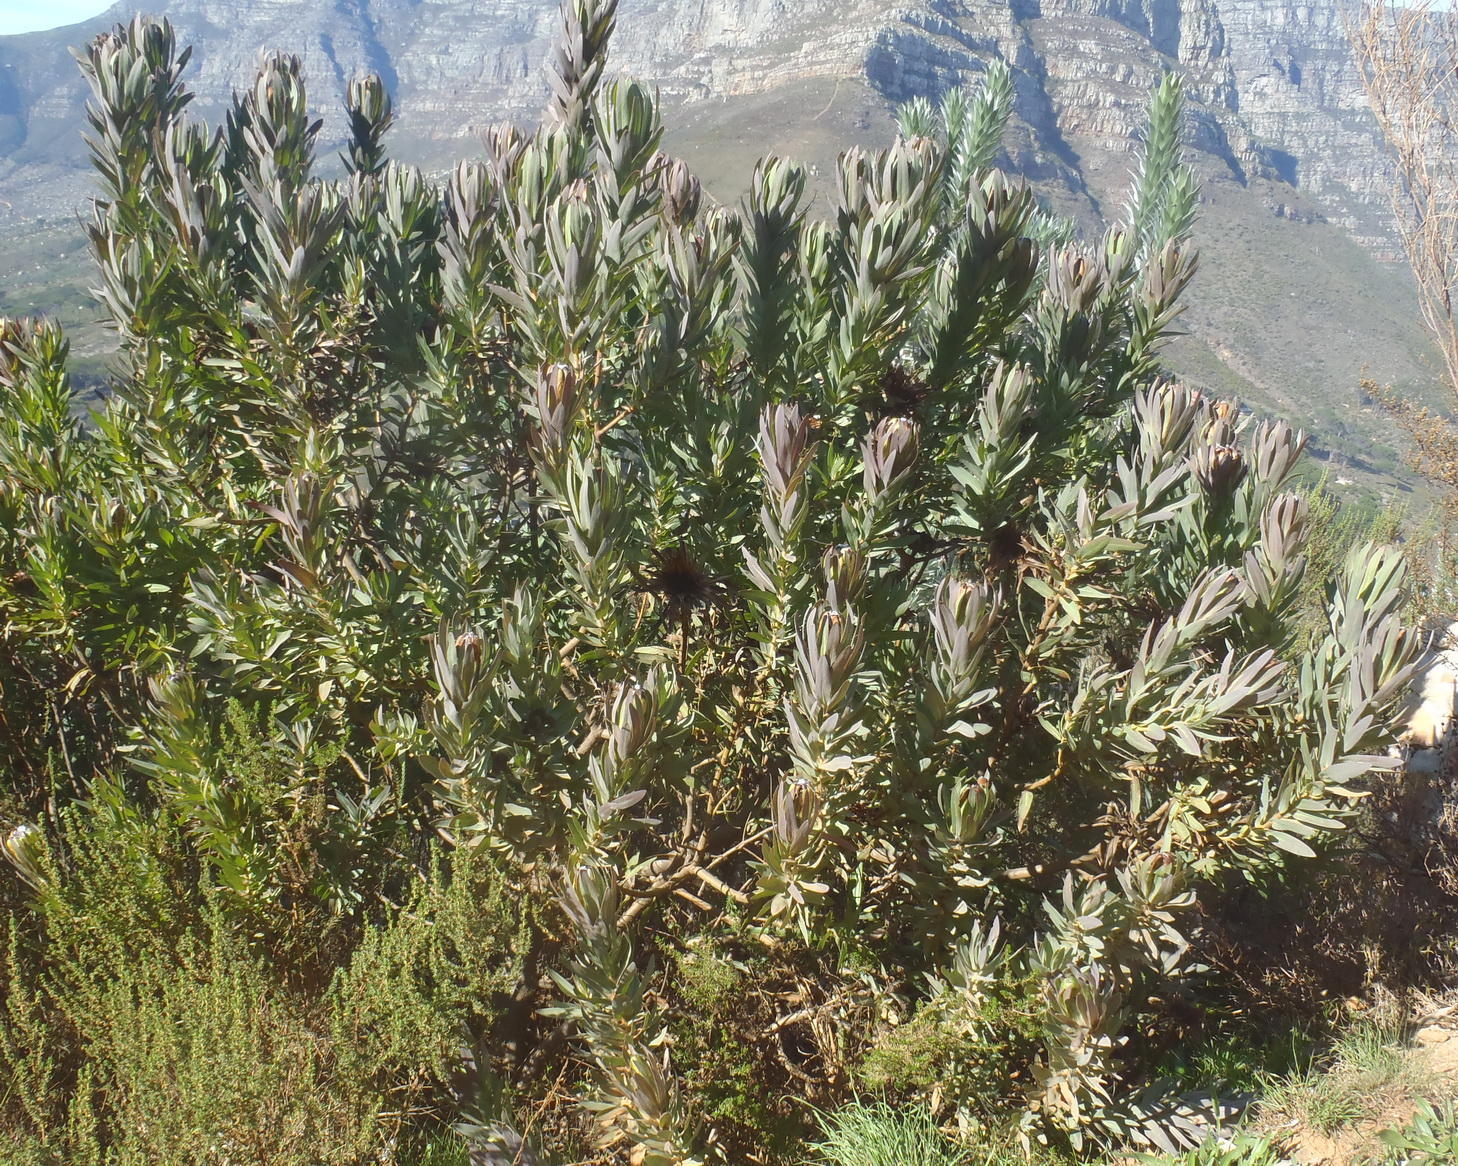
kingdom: Plantae
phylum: Tracheophyta
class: Magnoliopsida
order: Proteales
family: Proteaceae
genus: Protea
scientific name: Protea coronata
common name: Green sugarbush
